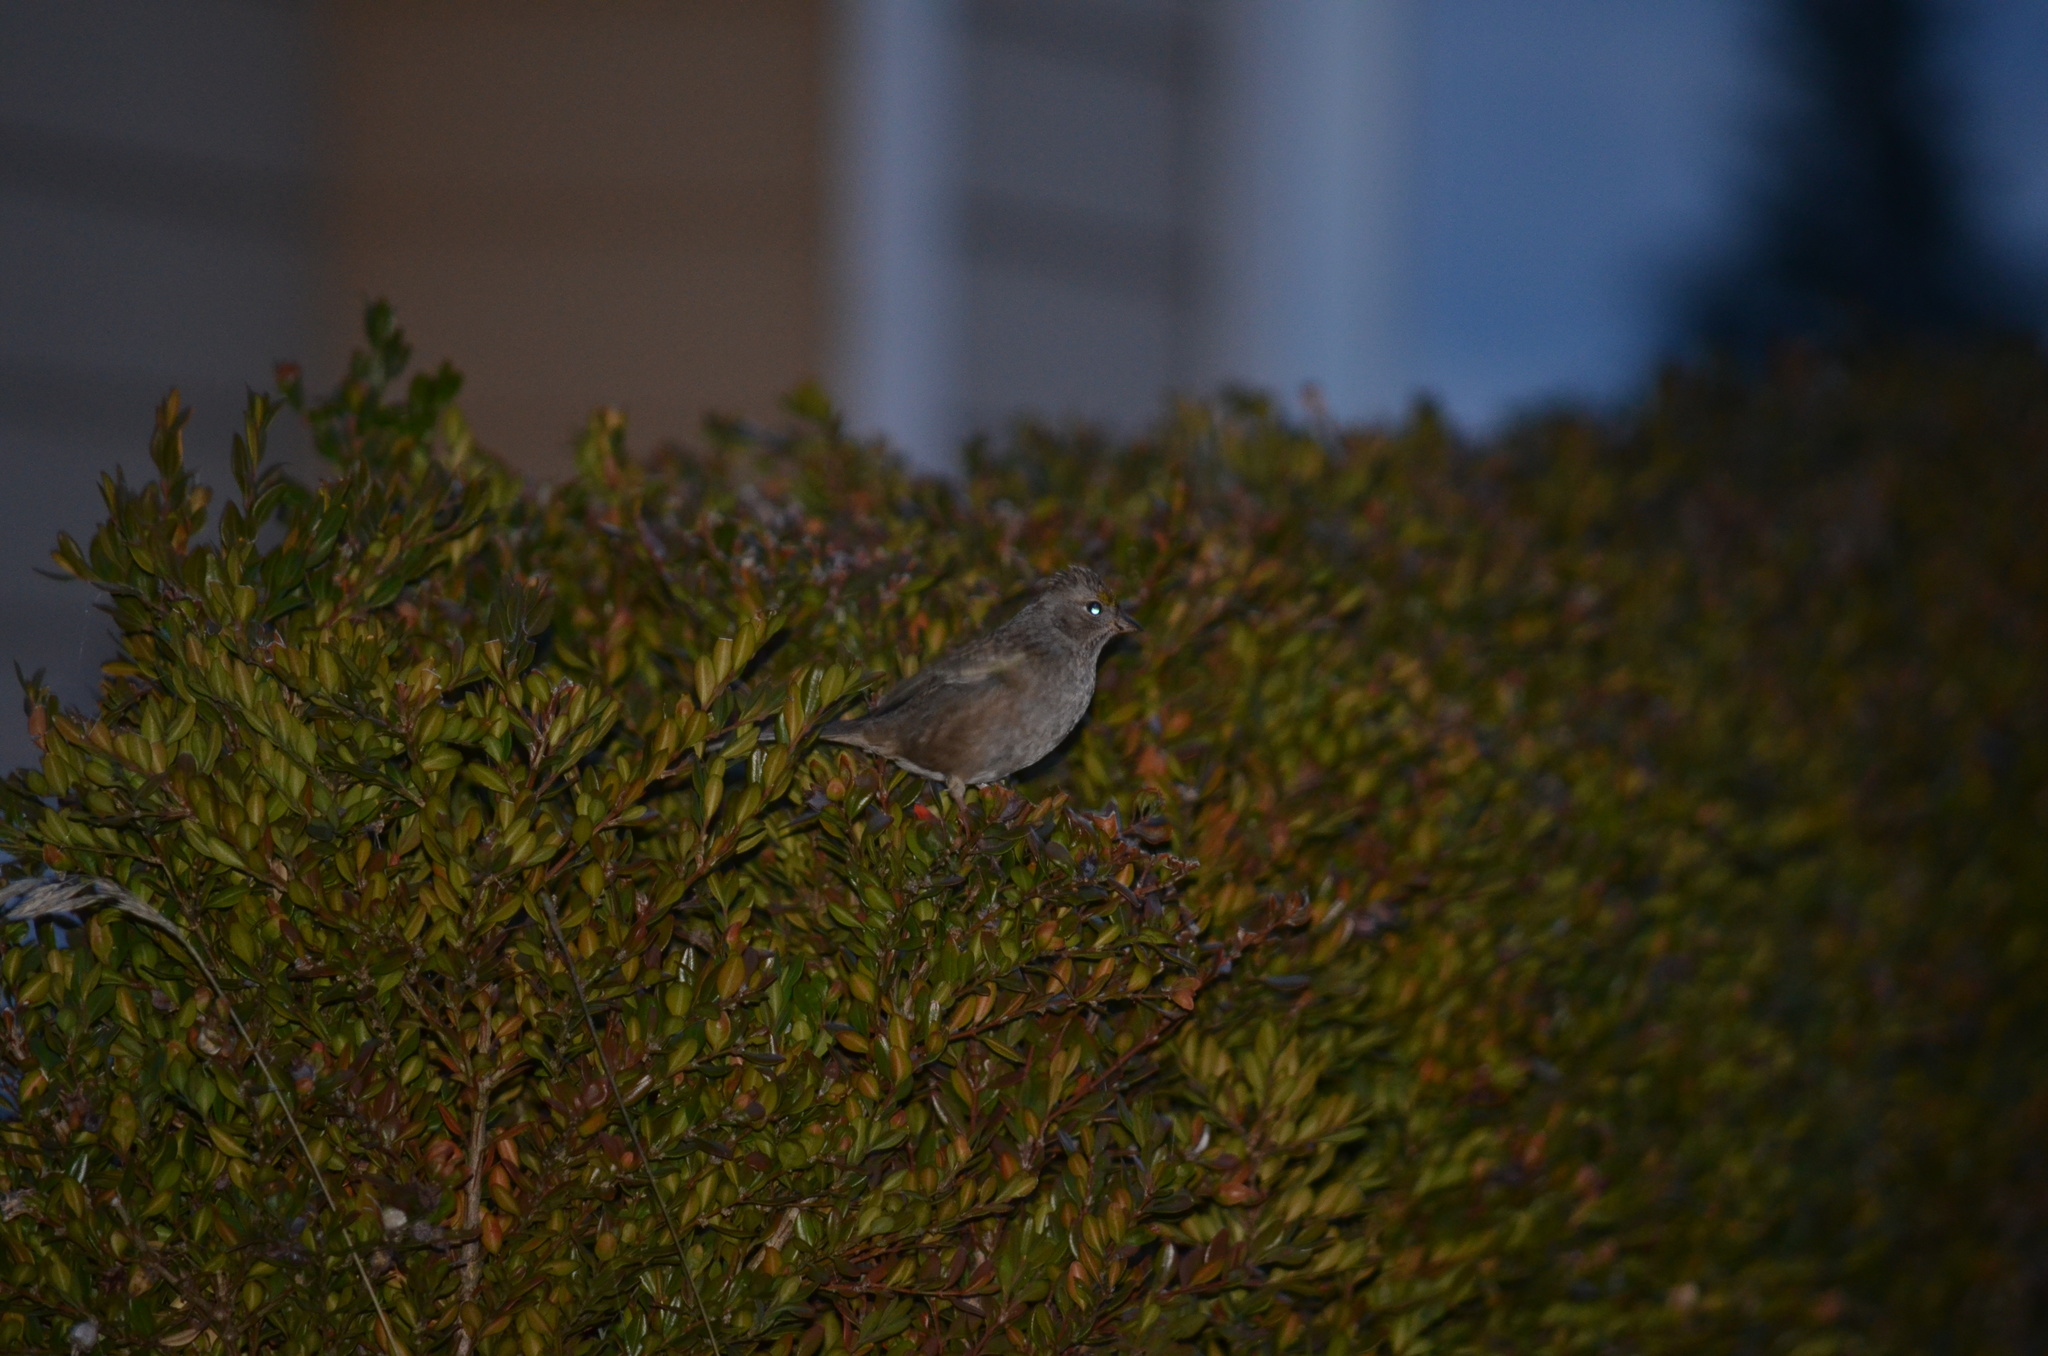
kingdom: Animalia
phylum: Chordata
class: Aves
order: Passeriformes
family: Passerellidae
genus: Zonotrichia
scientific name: Zonotrichia atricapilla
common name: Golden-crowned sparrow
